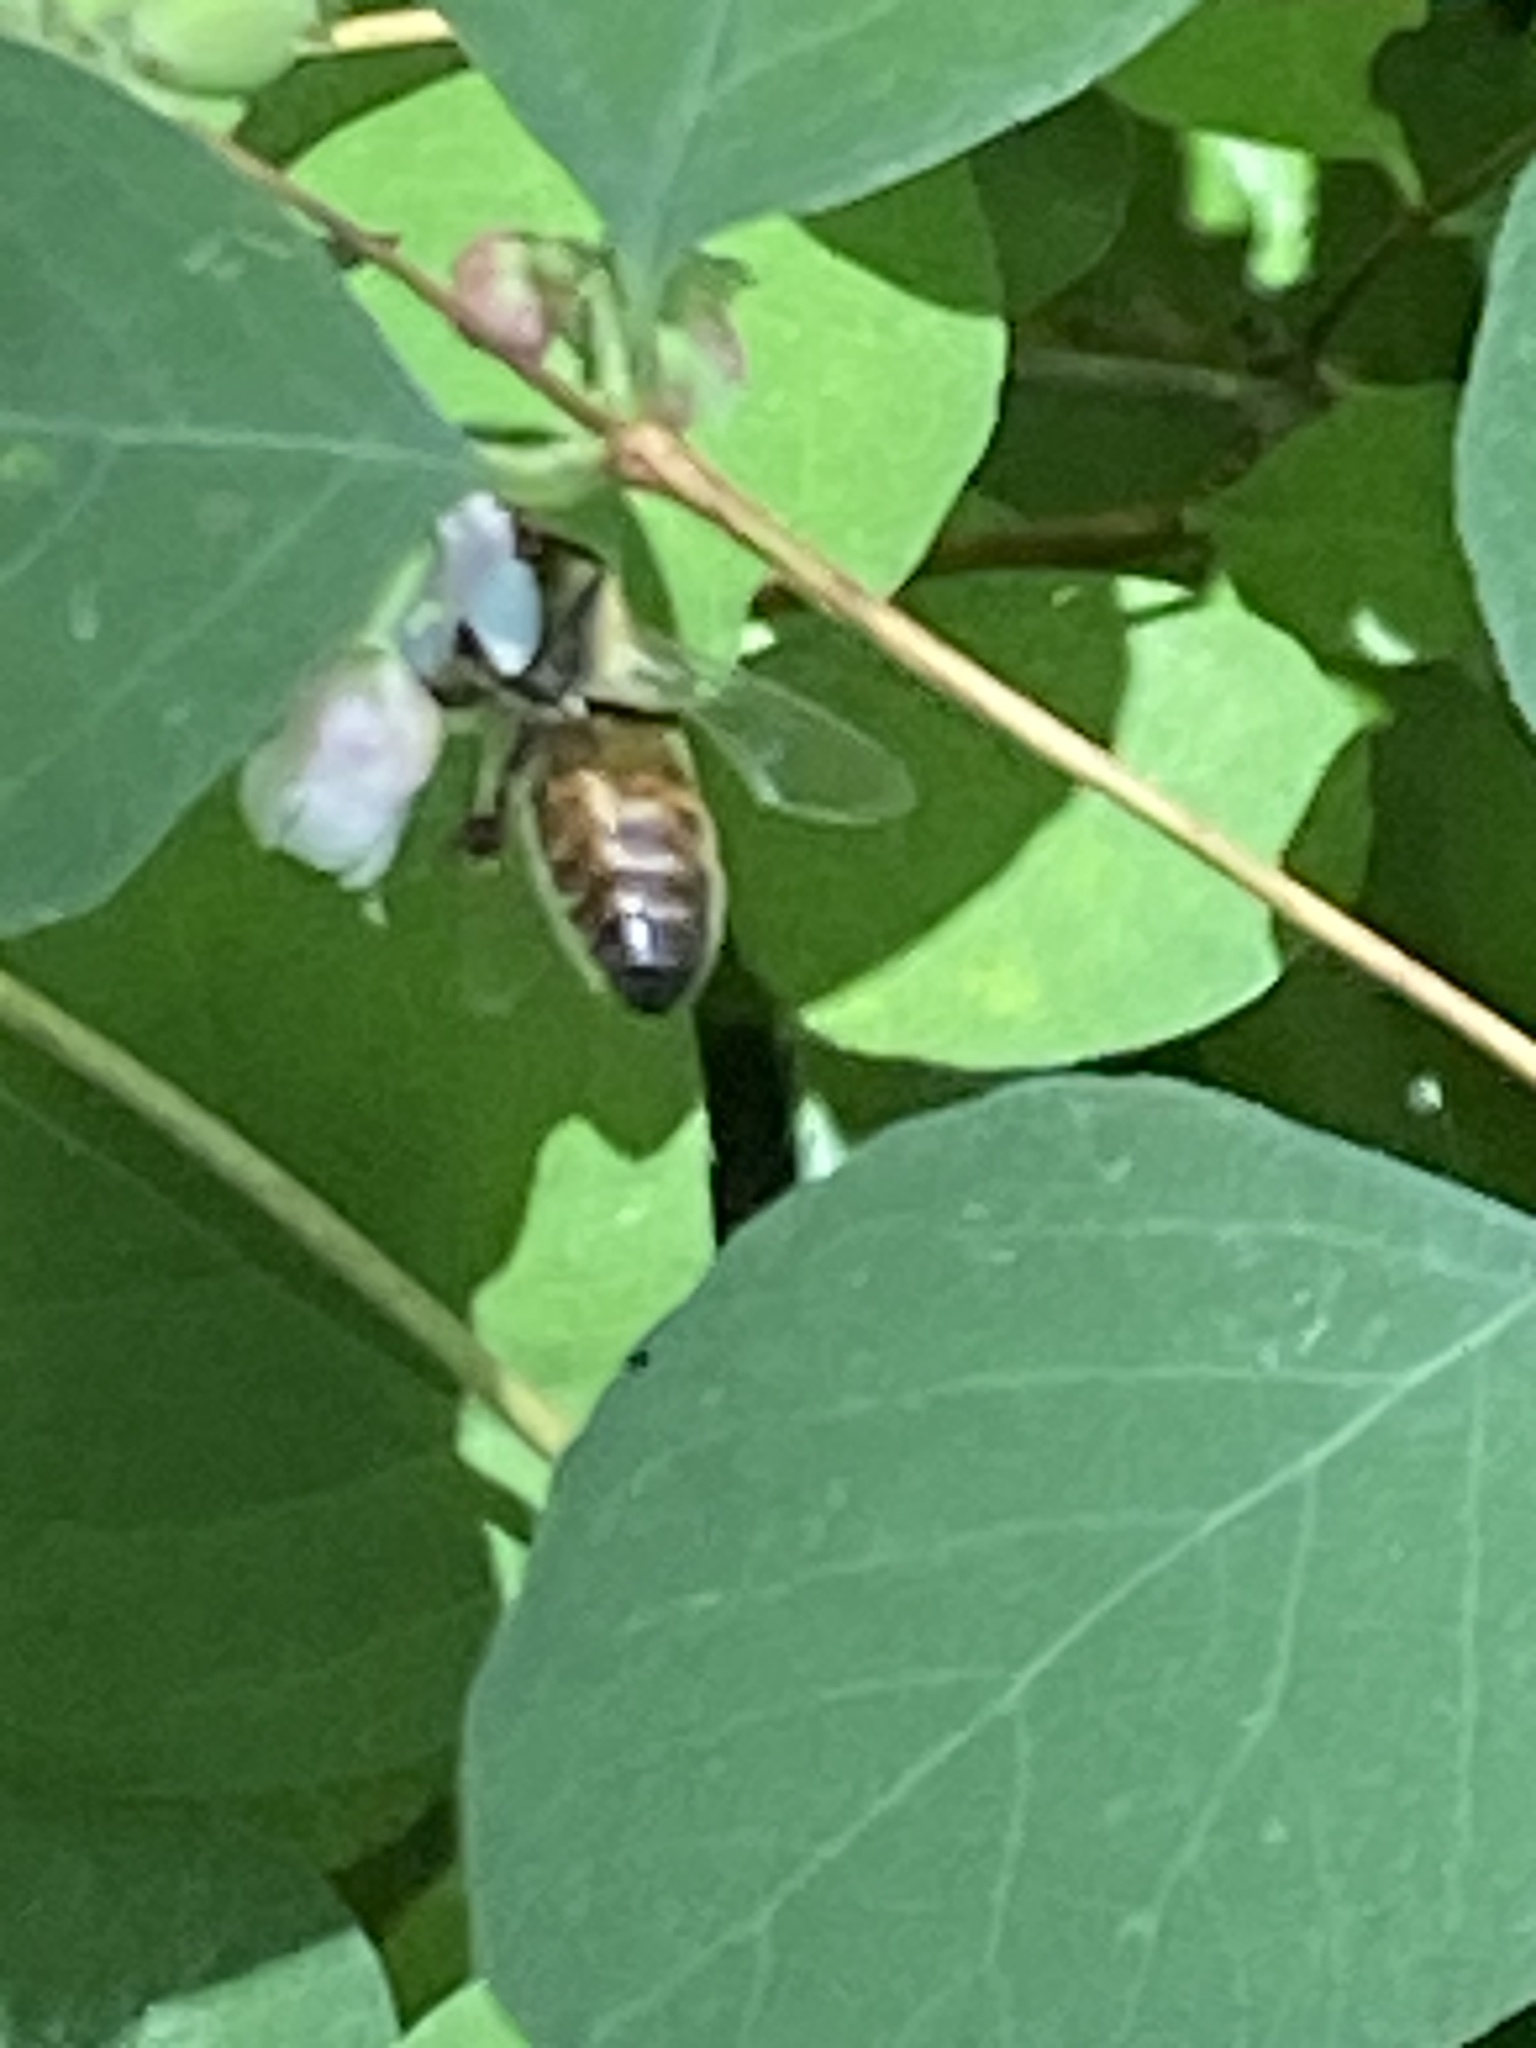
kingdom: Animalia
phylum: Arthropoda
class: Insecta
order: Hymenoptera
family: Apidae
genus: Apis
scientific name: Apis mellifera
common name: Honey bee
